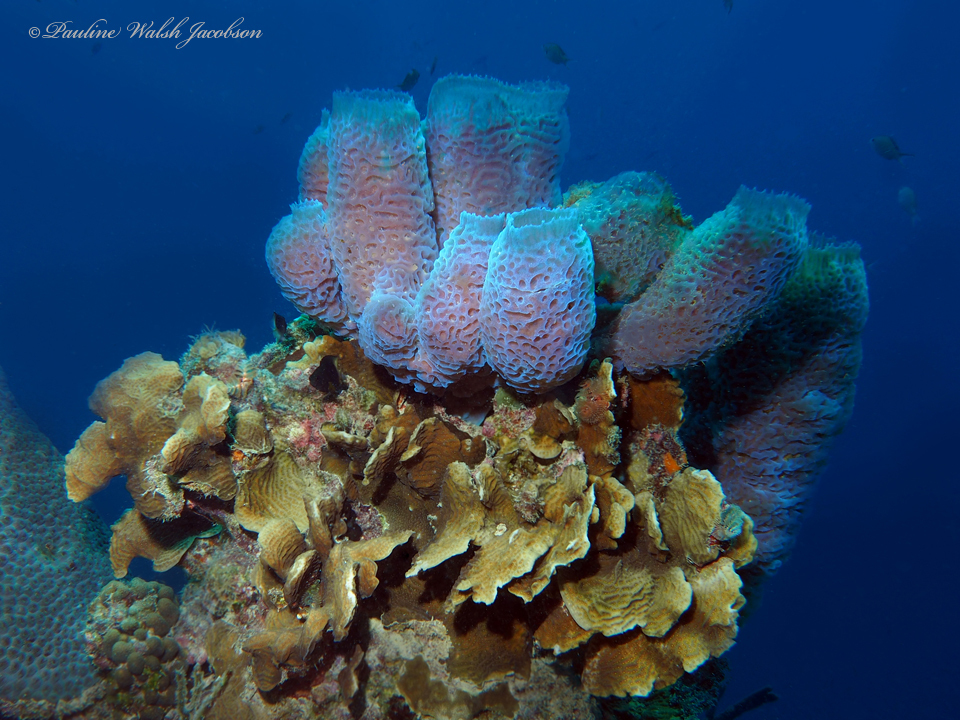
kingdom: Animalia
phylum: Cnidaria
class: Anthozoa
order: Scleractinia
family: Agariciidae
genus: Agaricia
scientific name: Agaricia agaricites
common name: Lettuce coral
